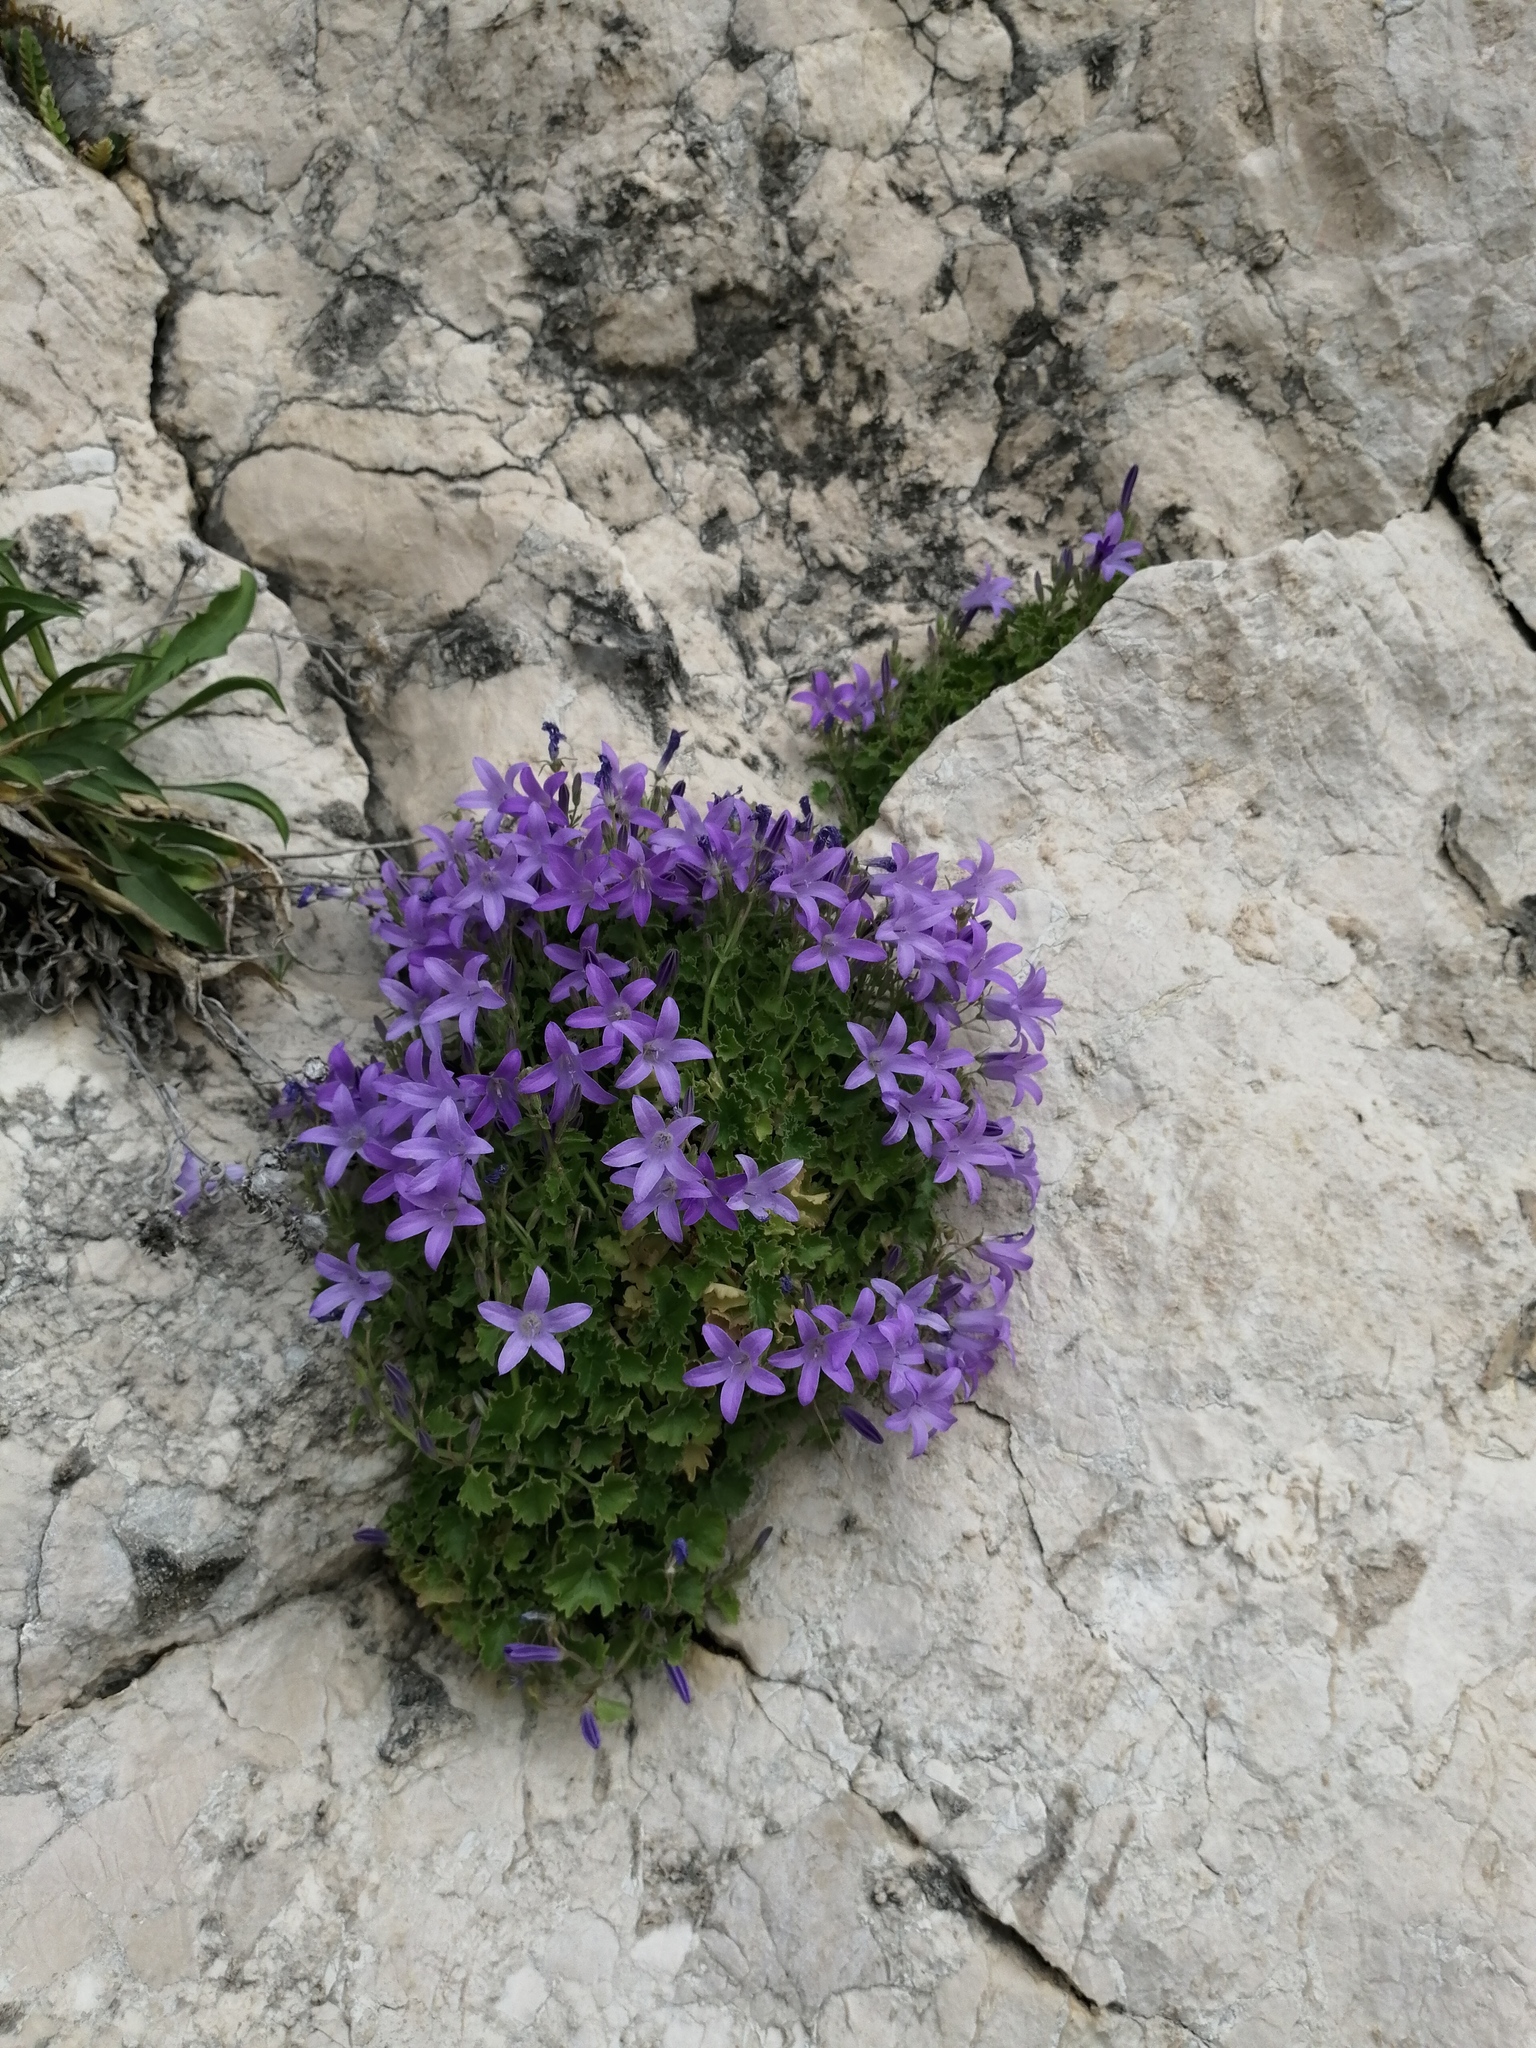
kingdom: Plantae
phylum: Tracheophyta
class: Magnoliopsida
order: Asterales
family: Campanulaceae
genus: Campanula
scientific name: Campanula portenschlagiana
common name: Adria bellflower
